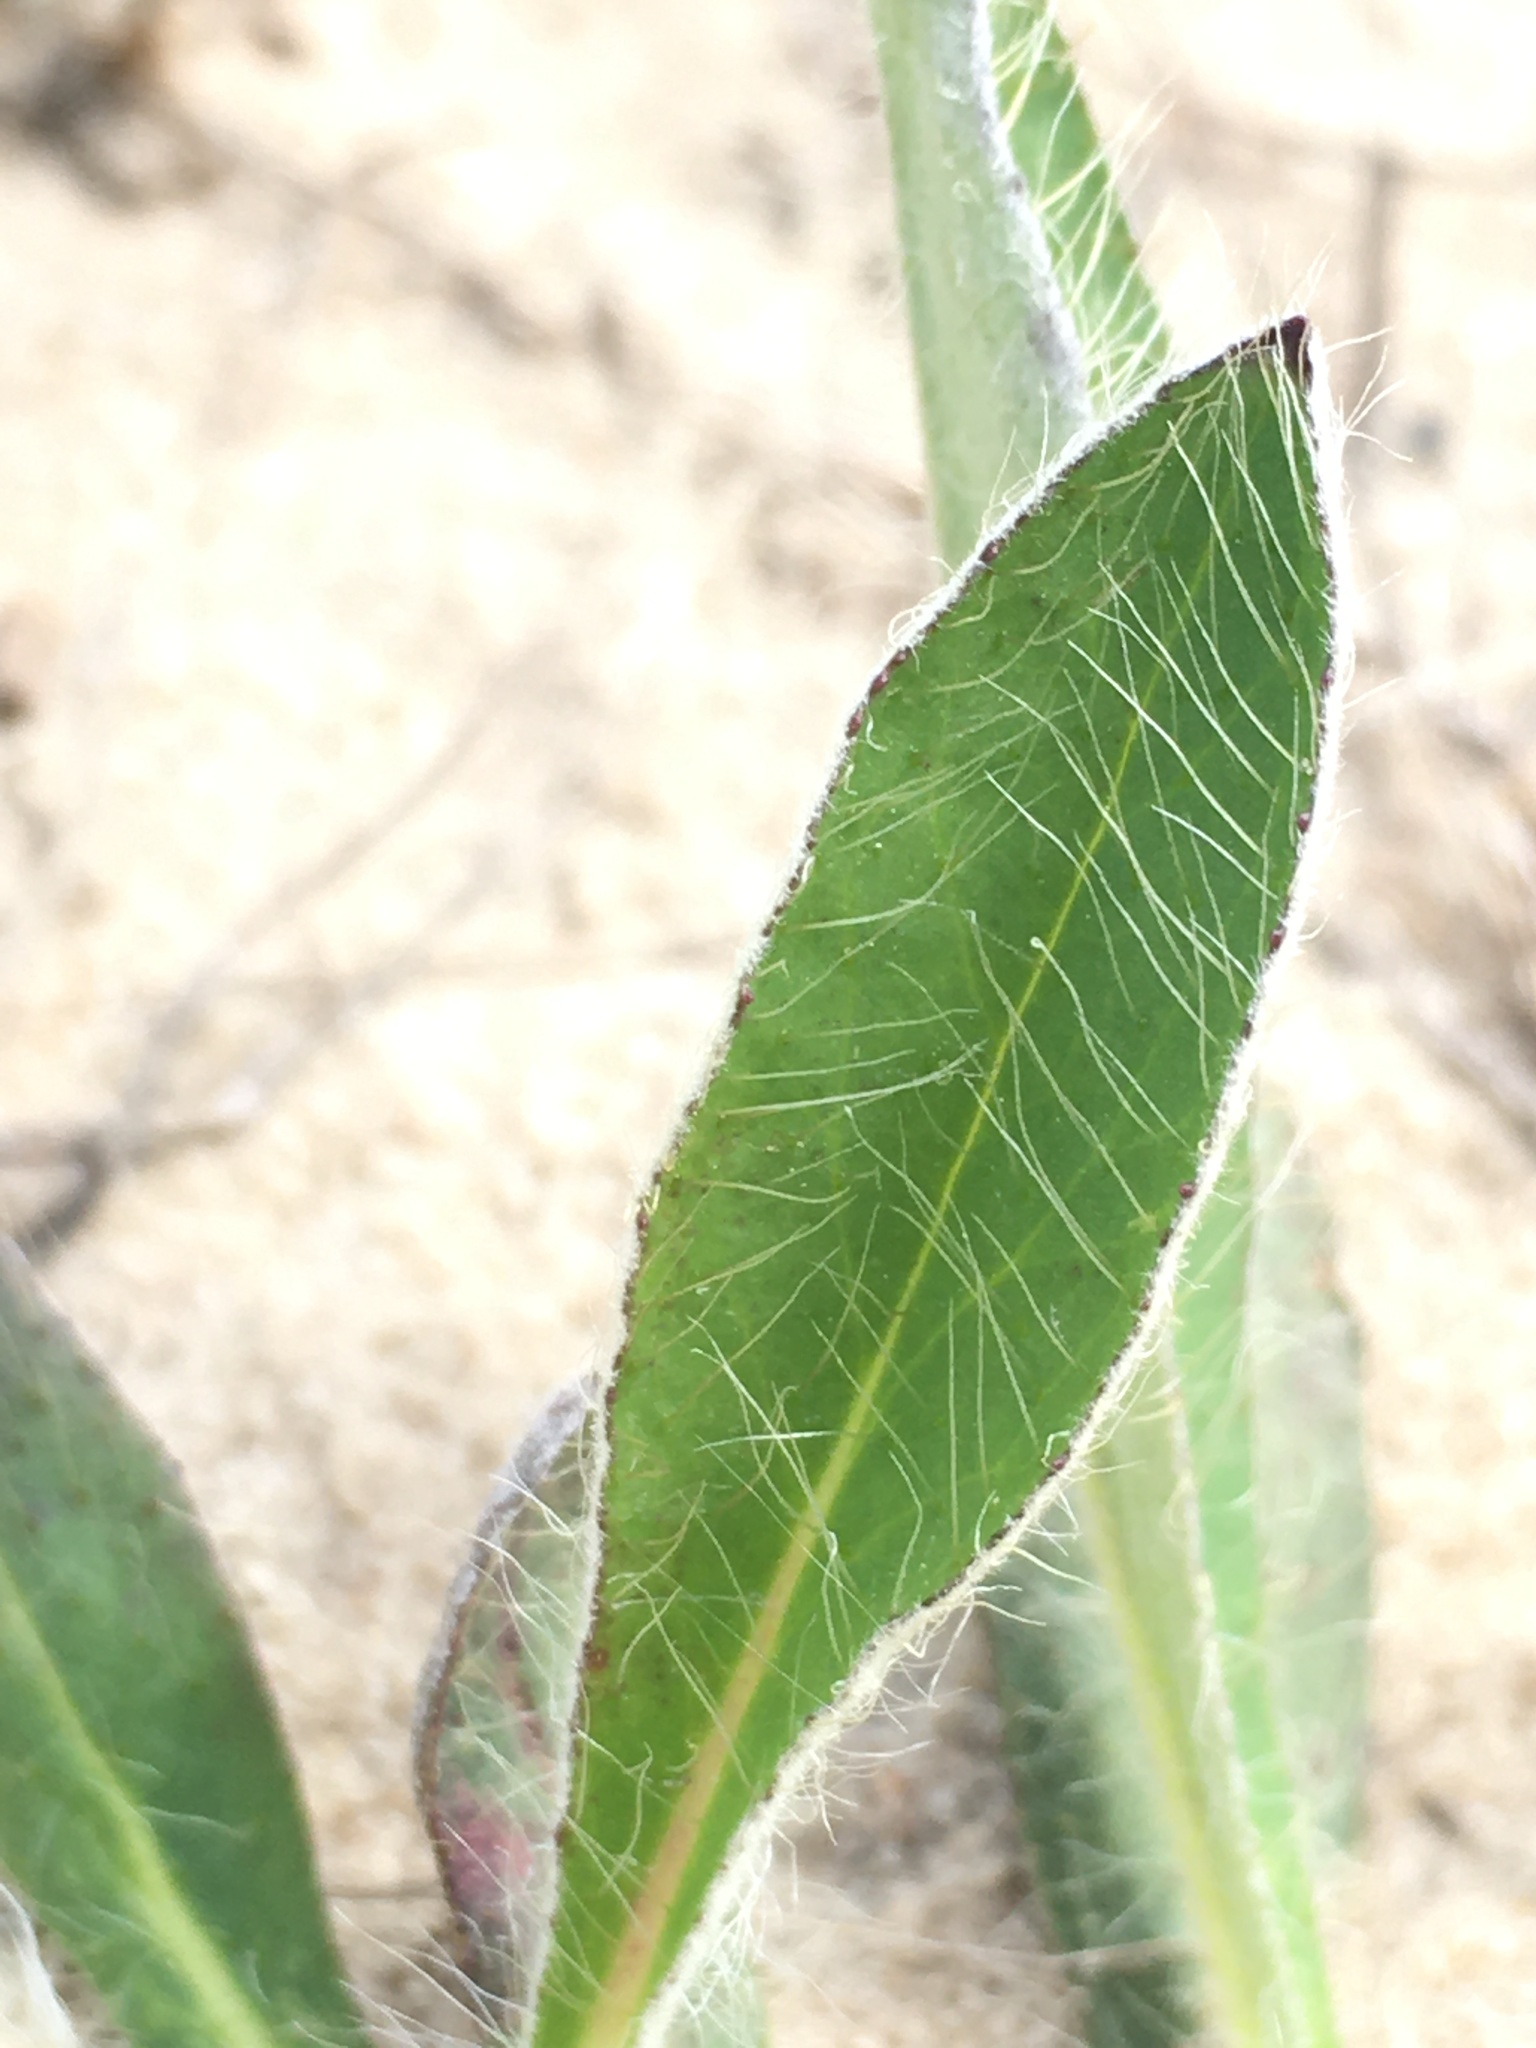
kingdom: Plantae
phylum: Tracheophyta
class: Magnoliopsida
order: Asterales
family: Asteraceae
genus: Pilosella
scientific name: Pilosella officinarum
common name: Mouse-ear hawkweed
